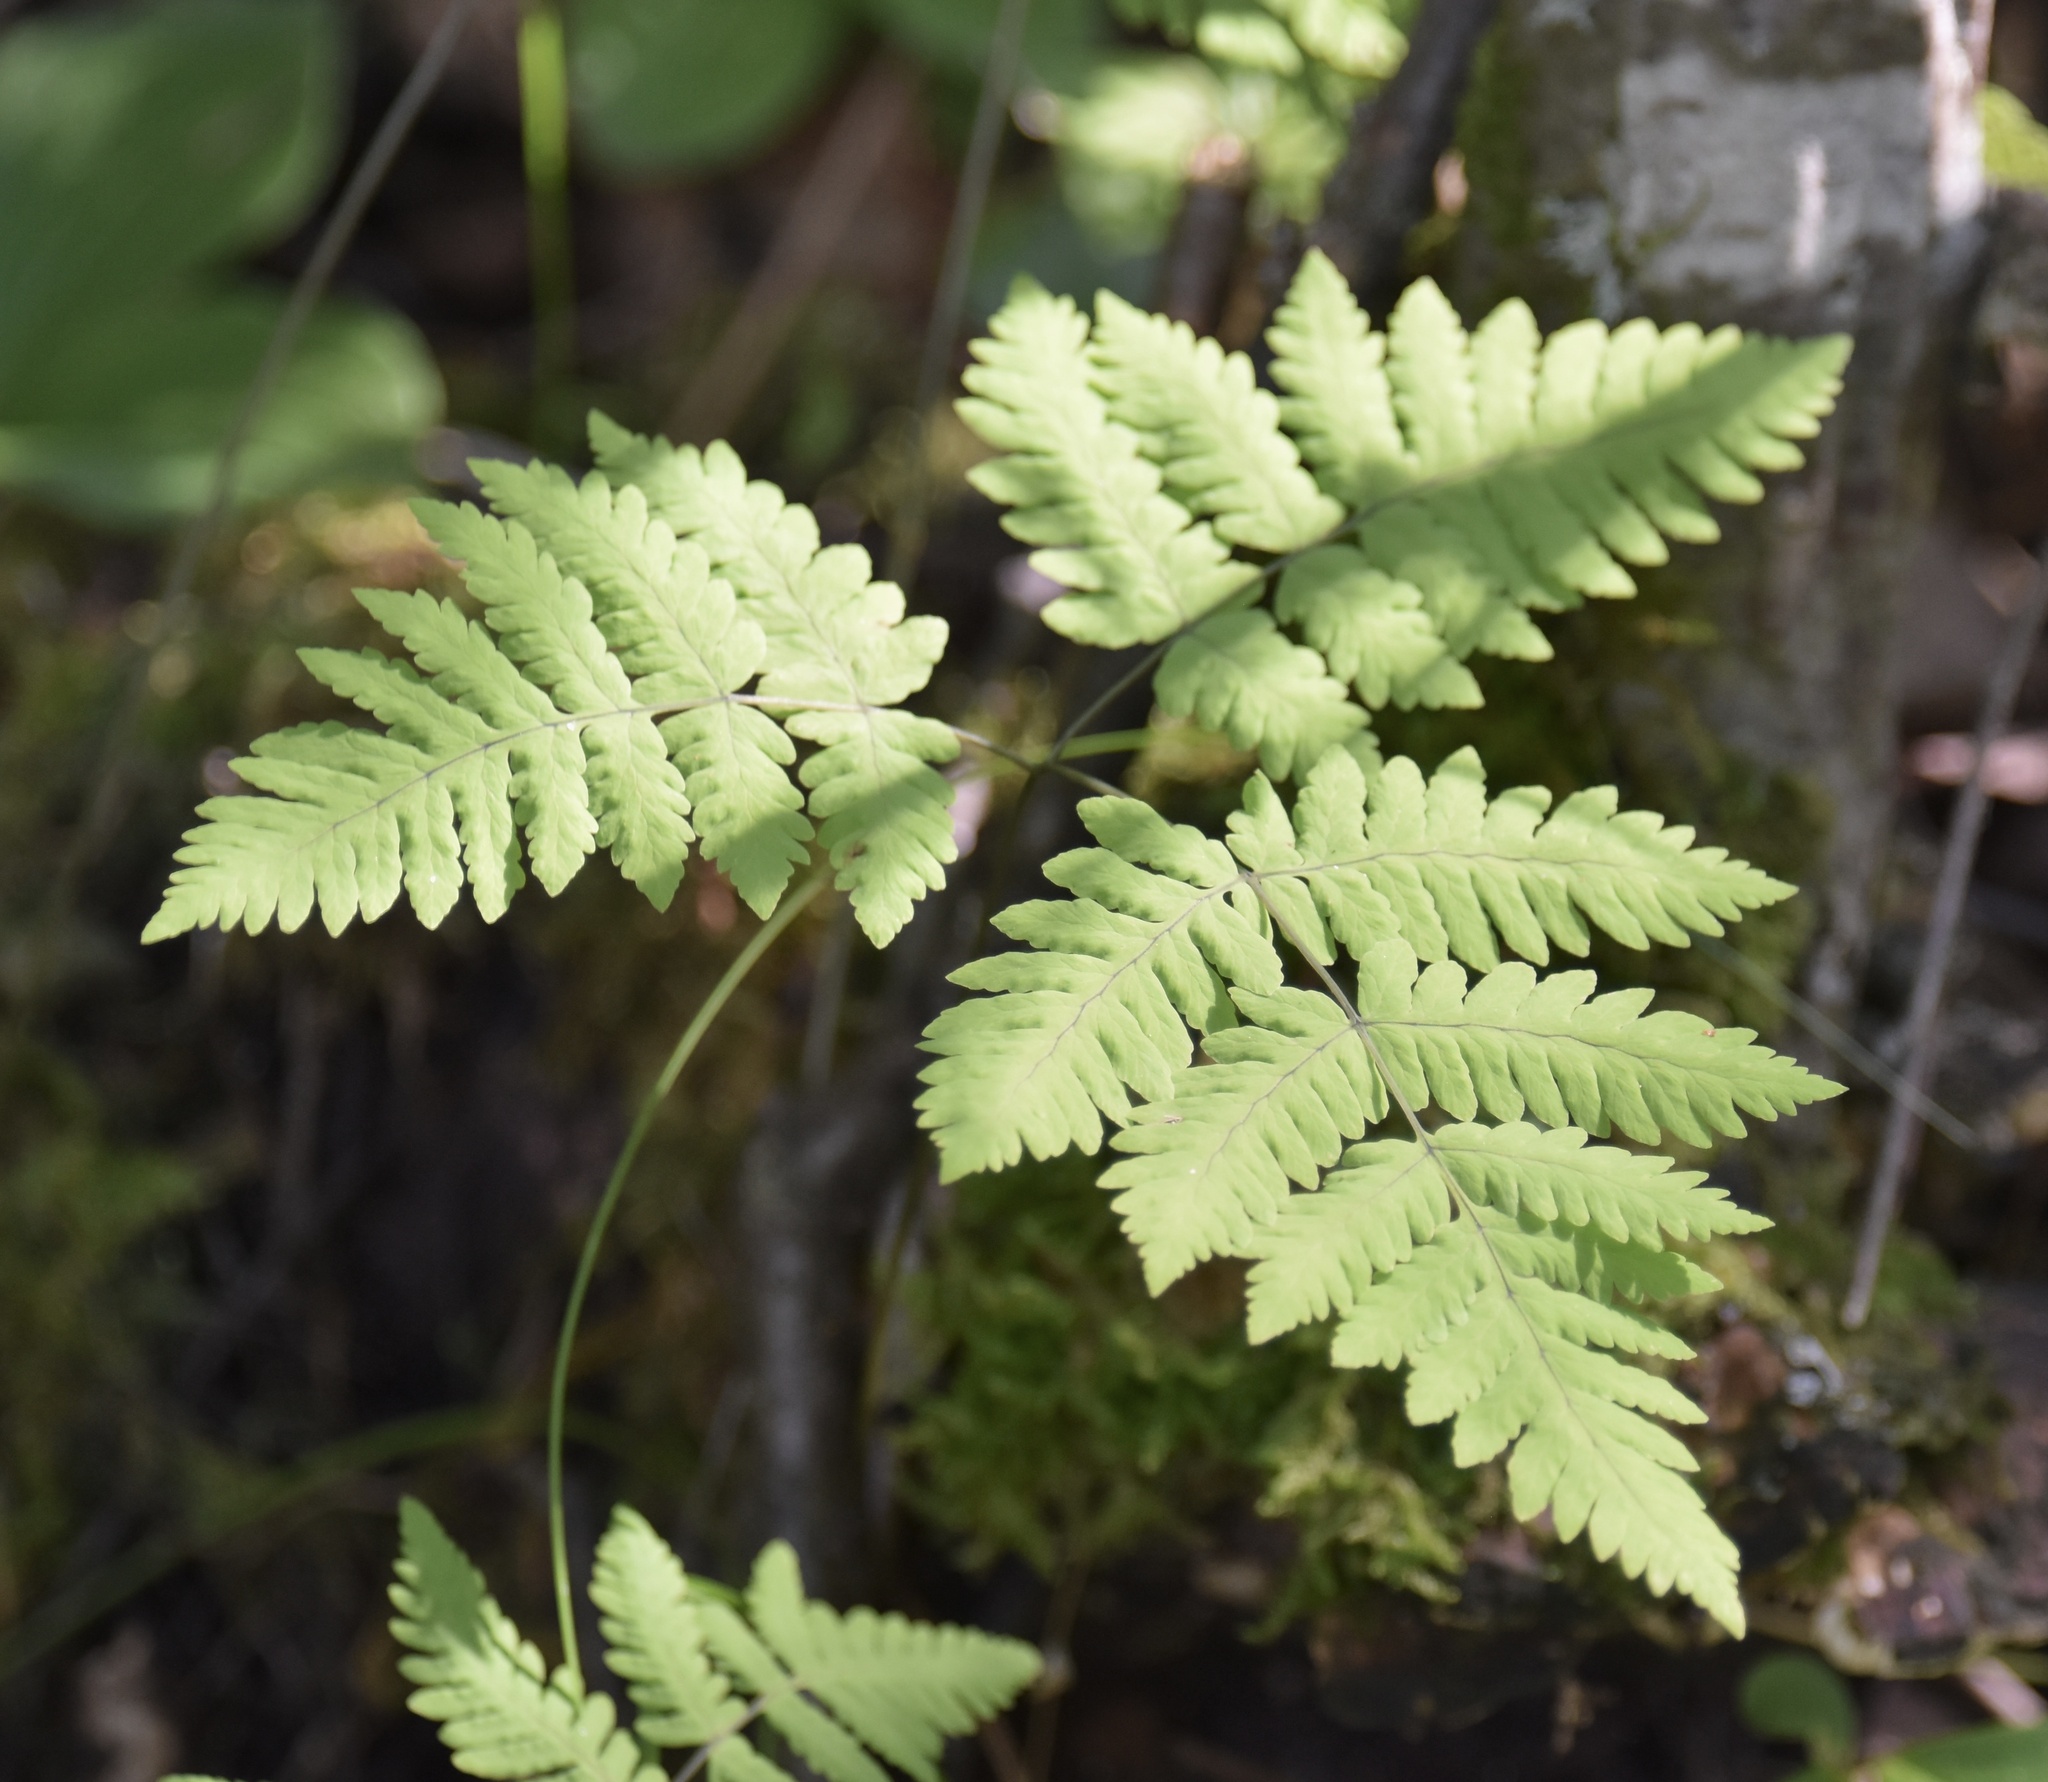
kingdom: Plantae
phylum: Tracheophyta
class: Polypodiopsida
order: Polypodiales
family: Cystopteridaceae
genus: Gymnocarpium
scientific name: Gymnocarpium dryopteris
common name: Oak fern
